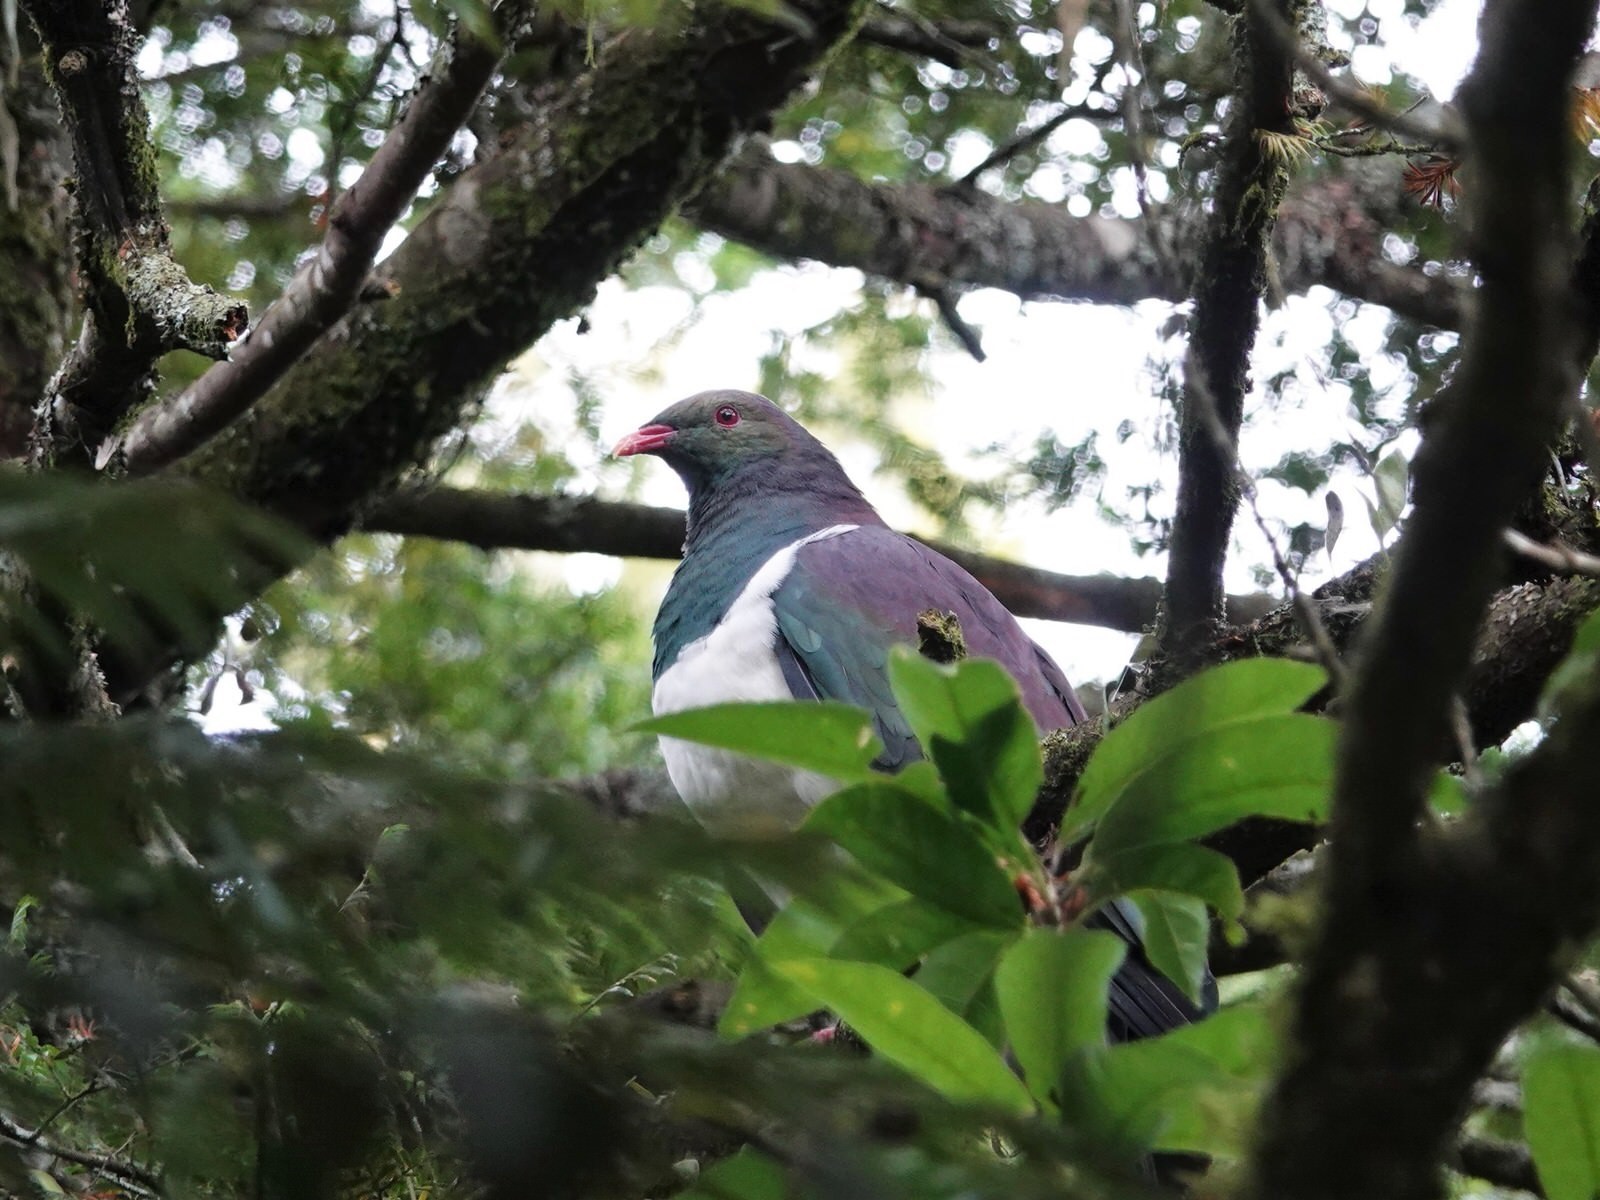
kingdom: Animalia
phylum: Chordata
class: Aves
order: Columbiformes
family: Columbidae
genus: Hemiphaga
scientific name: Hemiphaga novaeseelandiae
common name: New zealand pigeon
